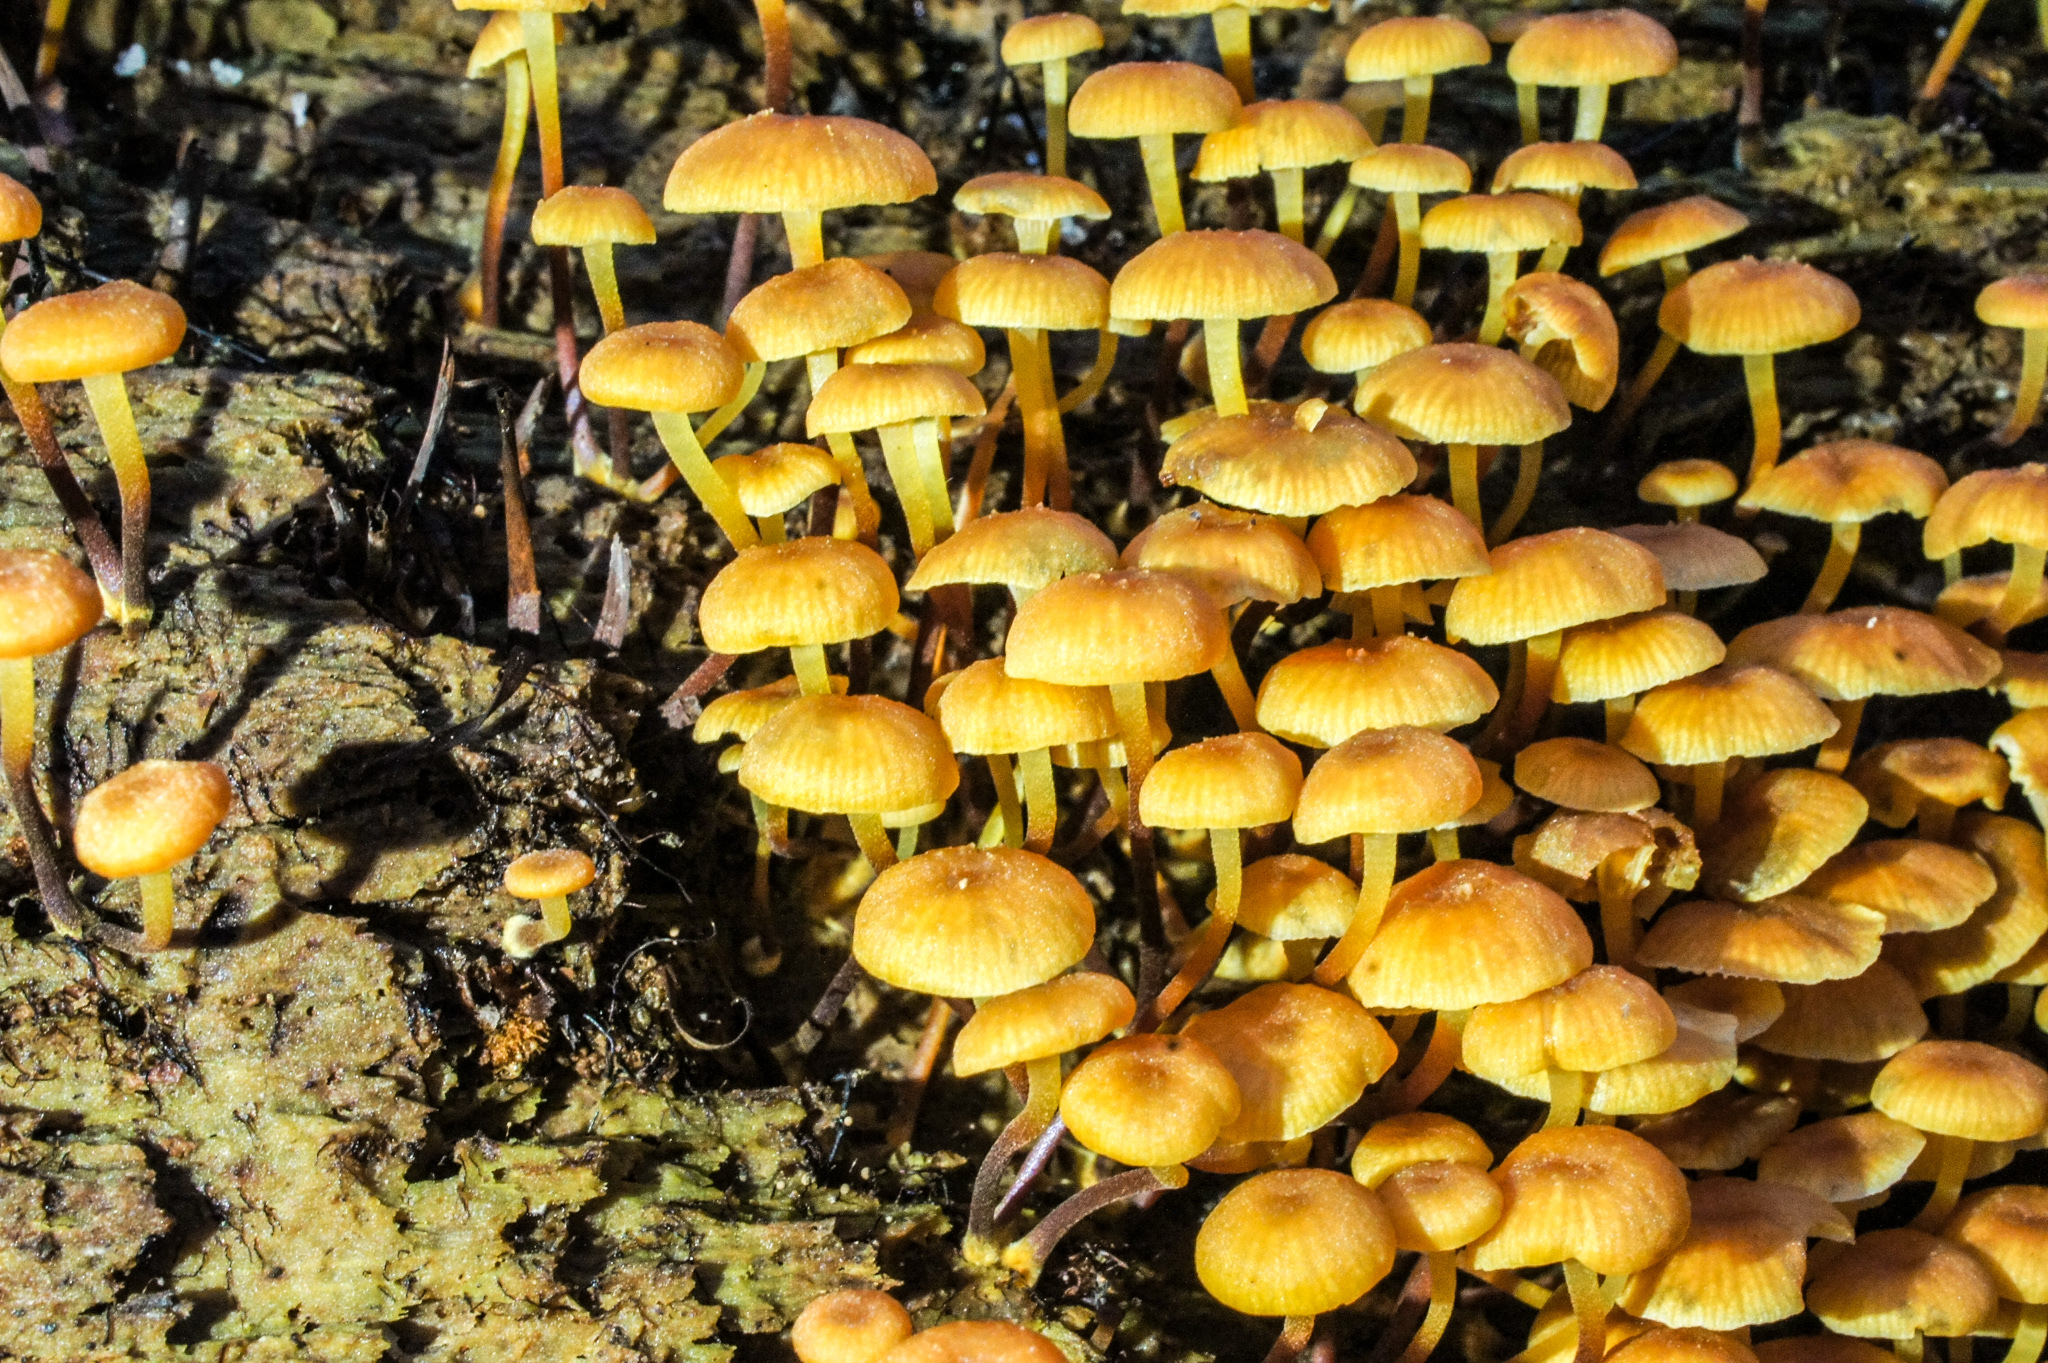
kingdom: Fungi
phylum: Basidiomycota
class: Agaricomycetes
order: Agaricales
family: Mycenaceae
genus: Xeromphalina
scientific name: Xeromphalina campanella
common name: Pinewood gingertail
